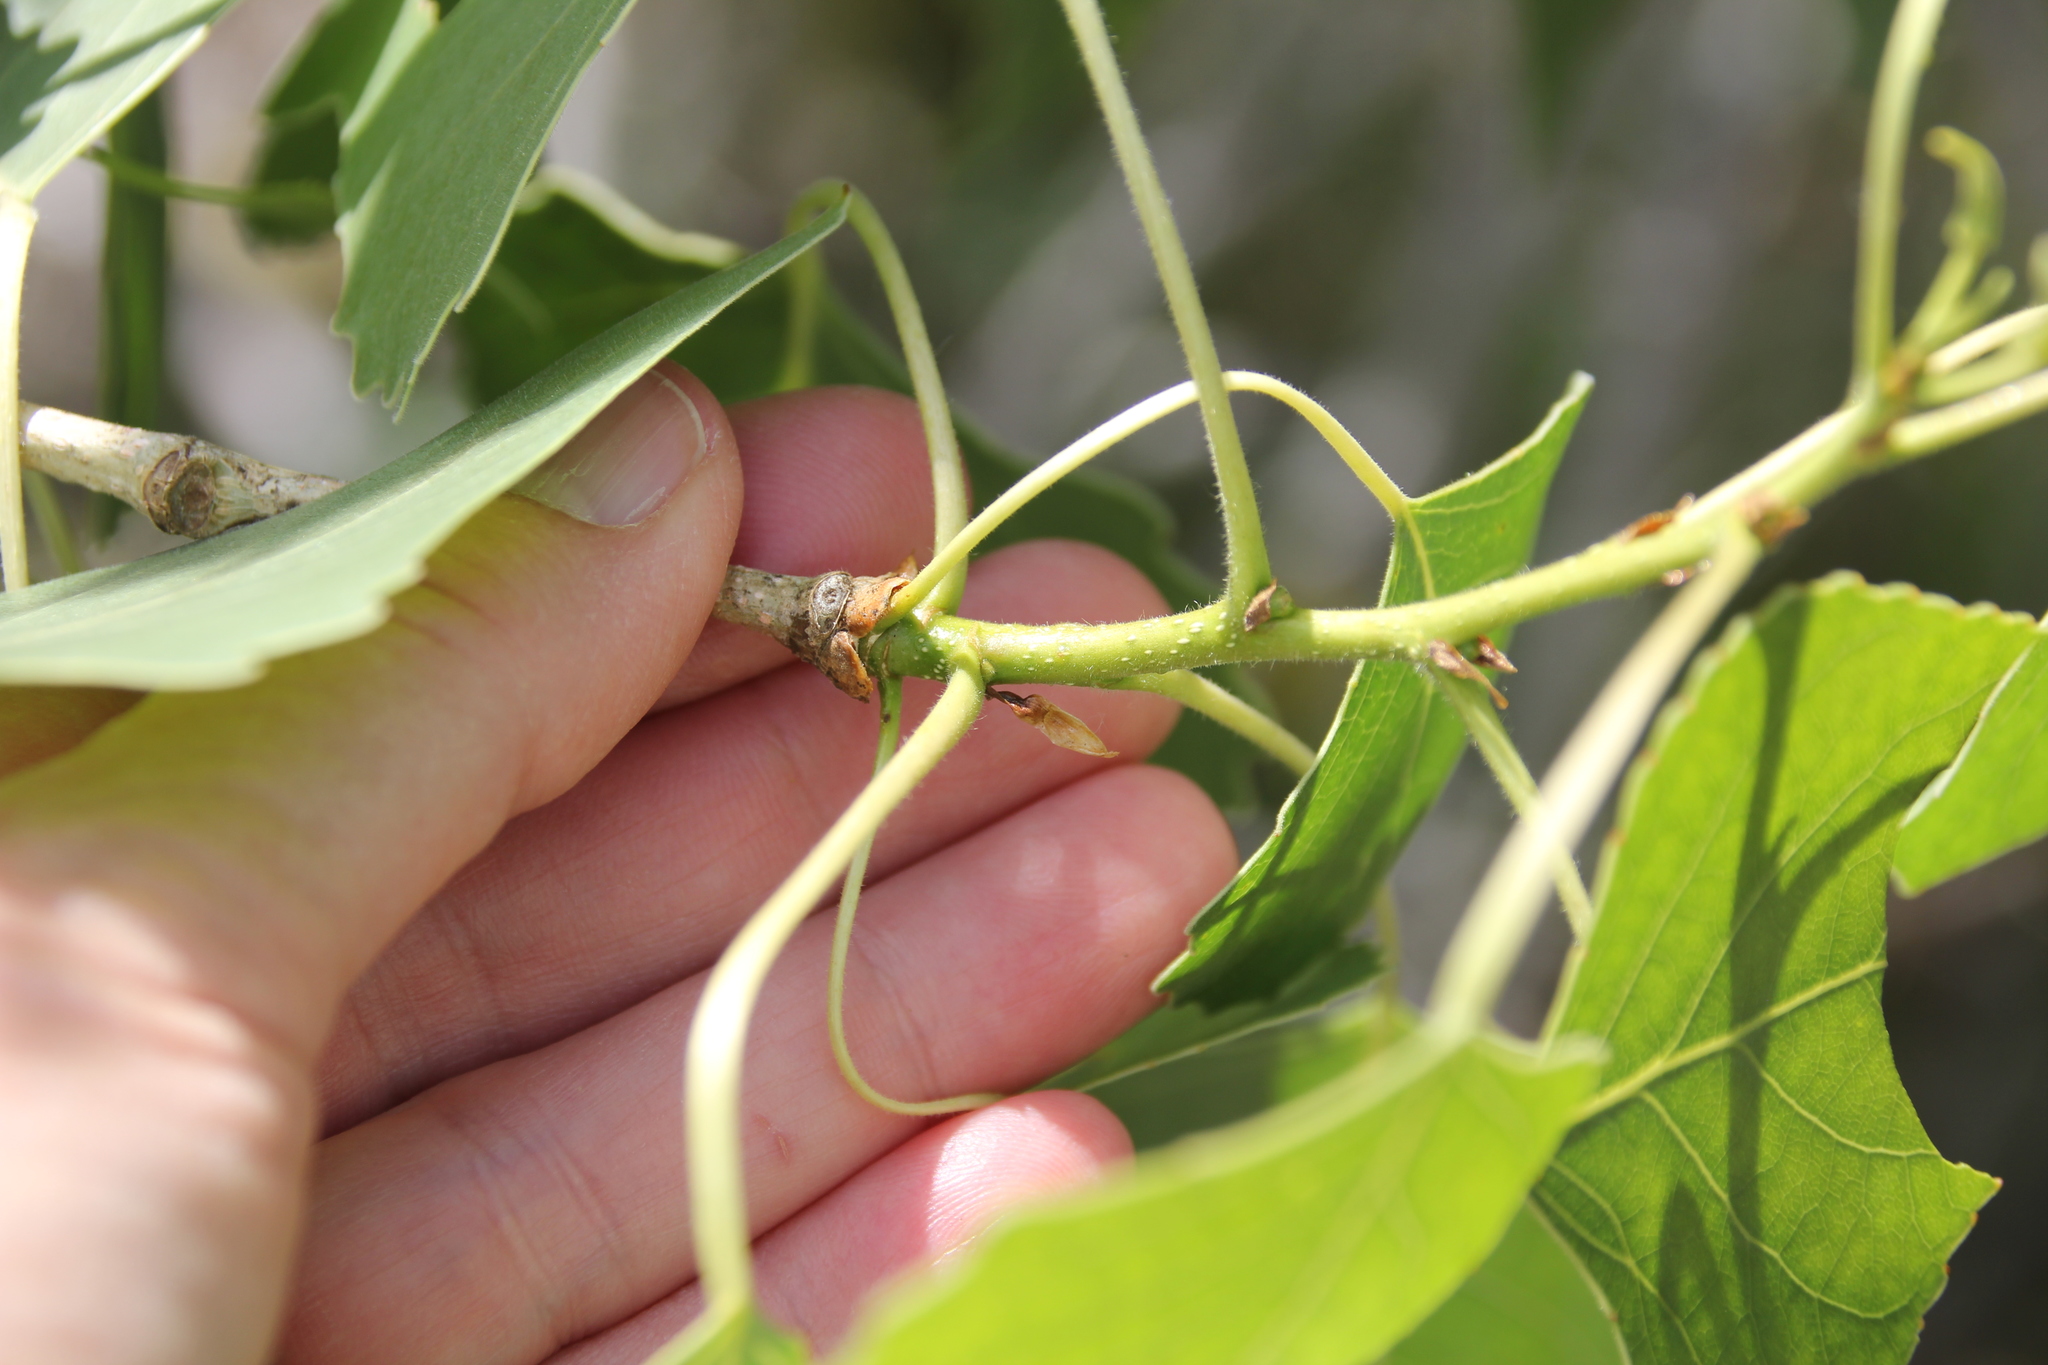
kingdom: Plantae
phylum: Tracheophyta
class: Magnoliopsida
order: Malpighiales
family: Salicaceae
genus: Populus
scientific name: Populus fremontii
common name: Fremont's cottonwood
